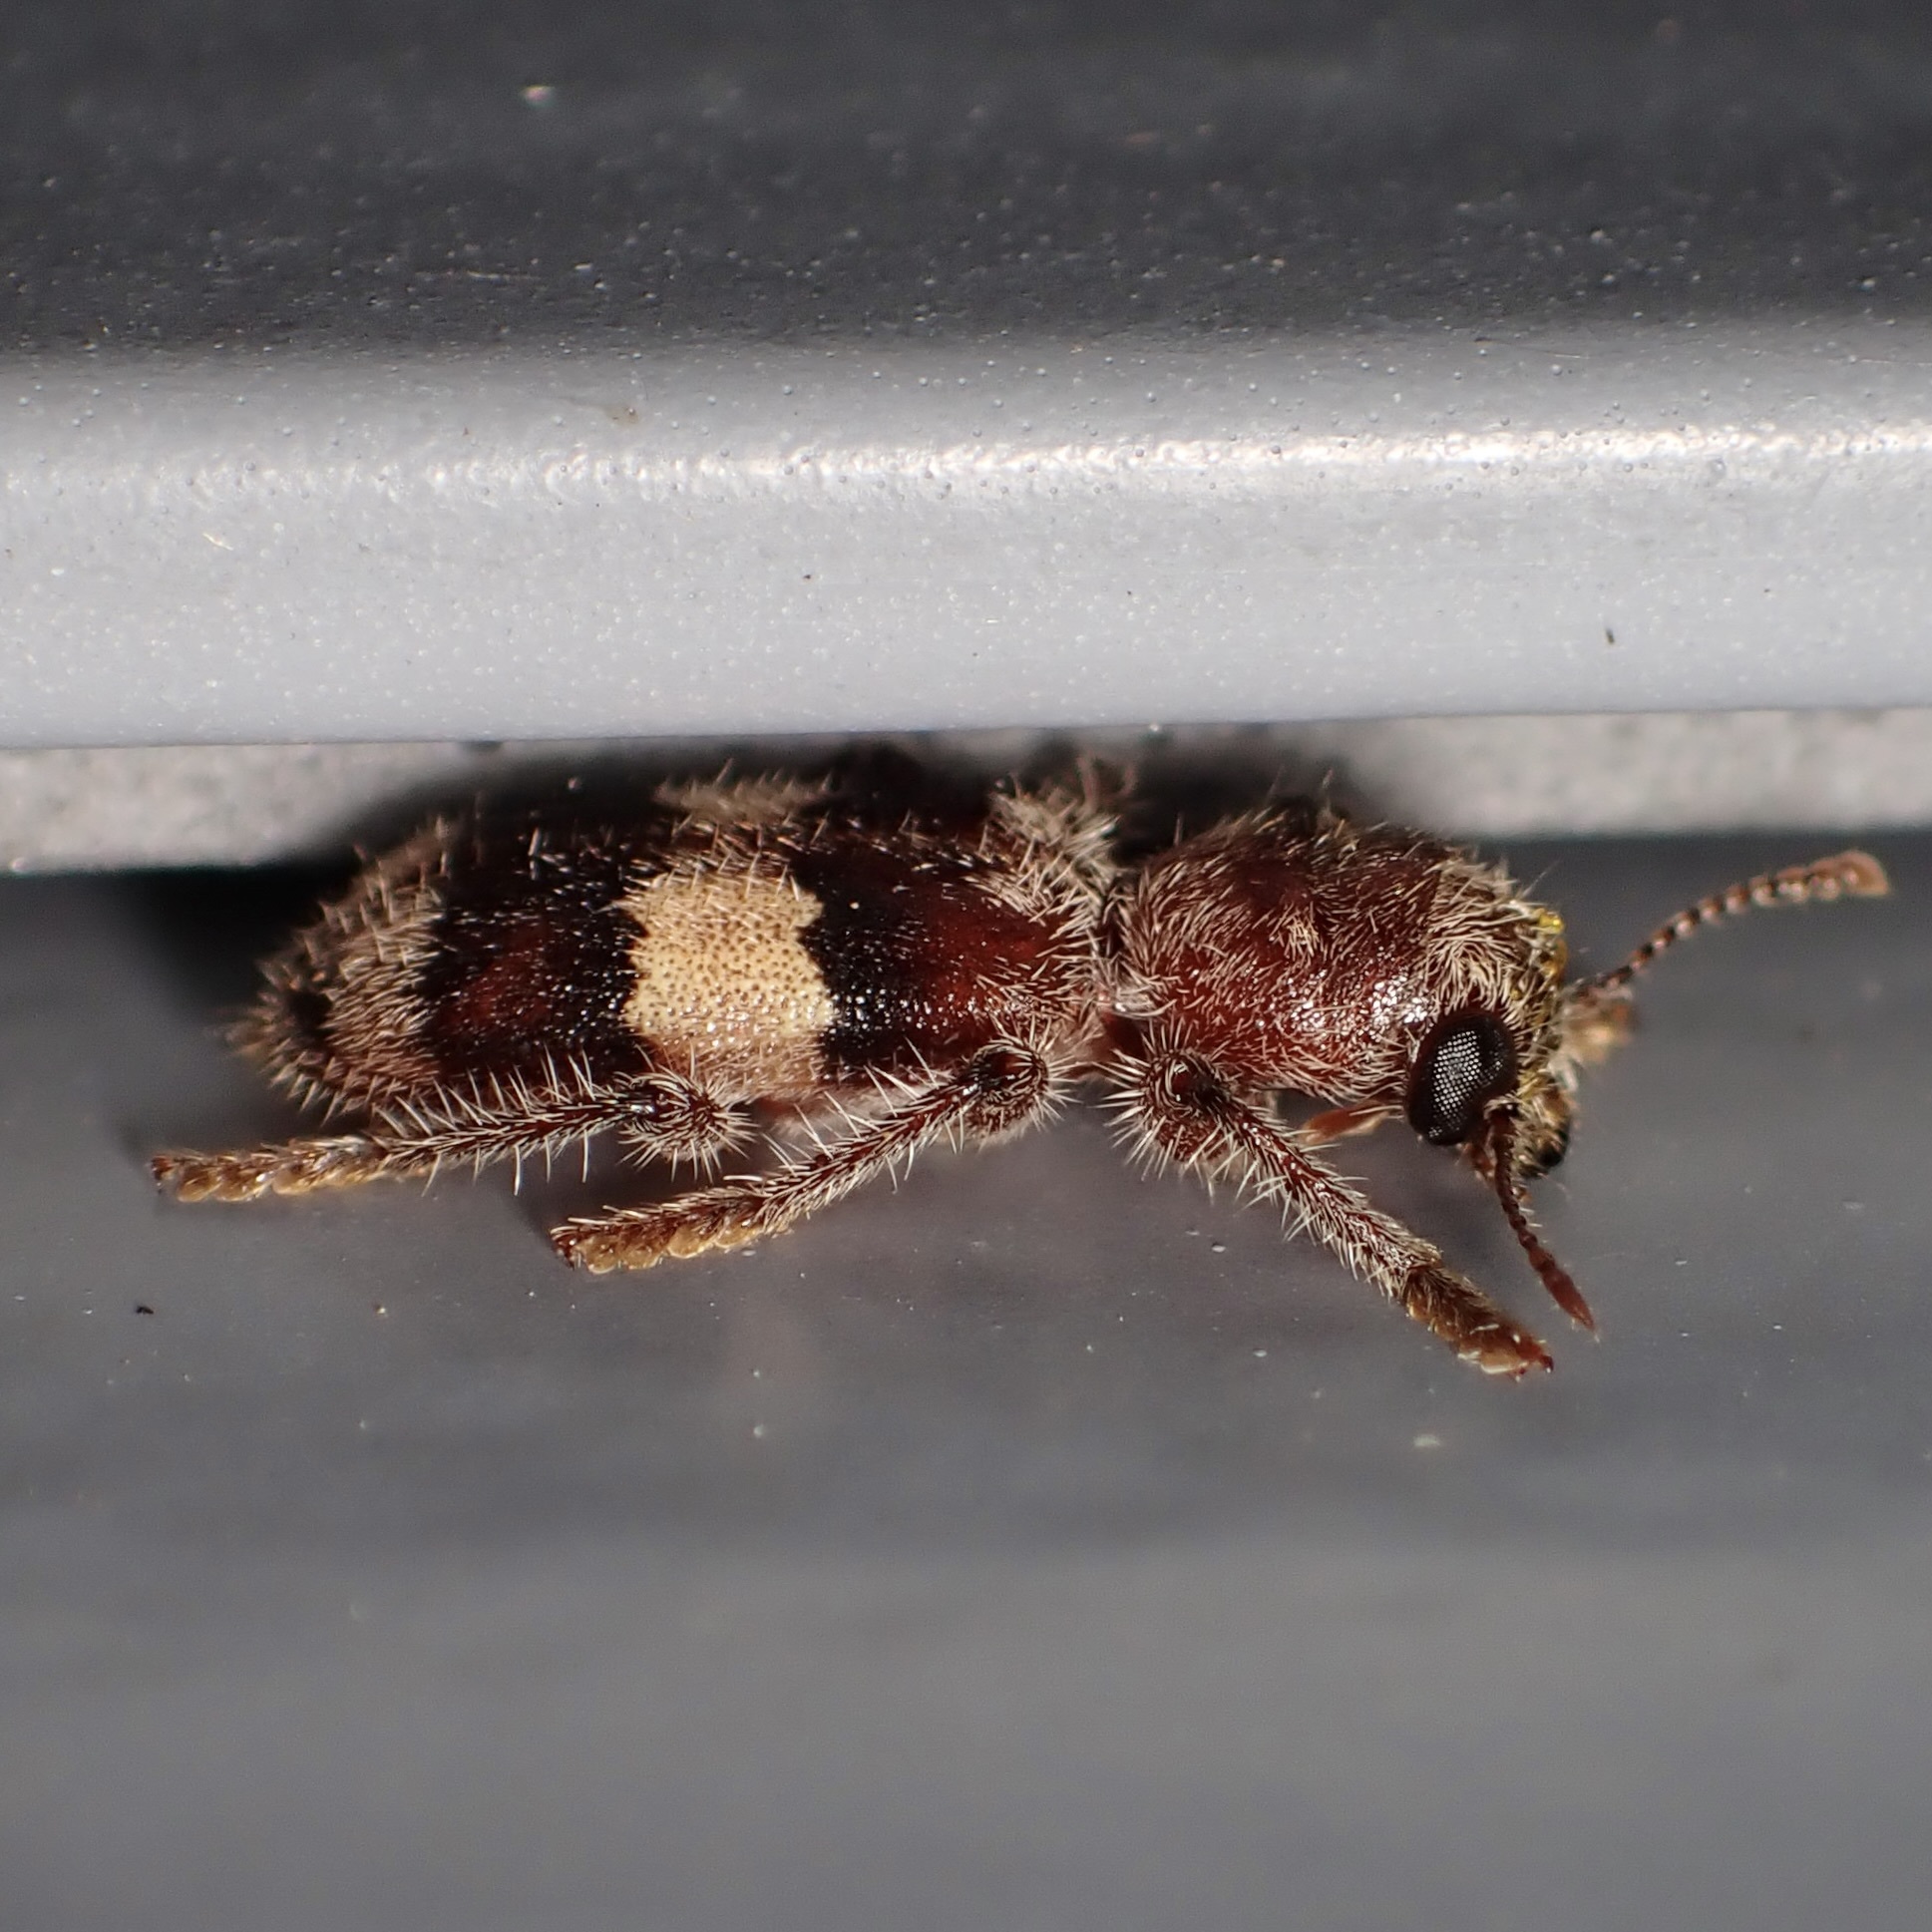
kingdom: Animalia
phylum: Arthropoda
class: Insecta
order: Coleoptera
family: Cleridae
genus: Enoclerus
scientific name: Enoclerus quadrisignatus
